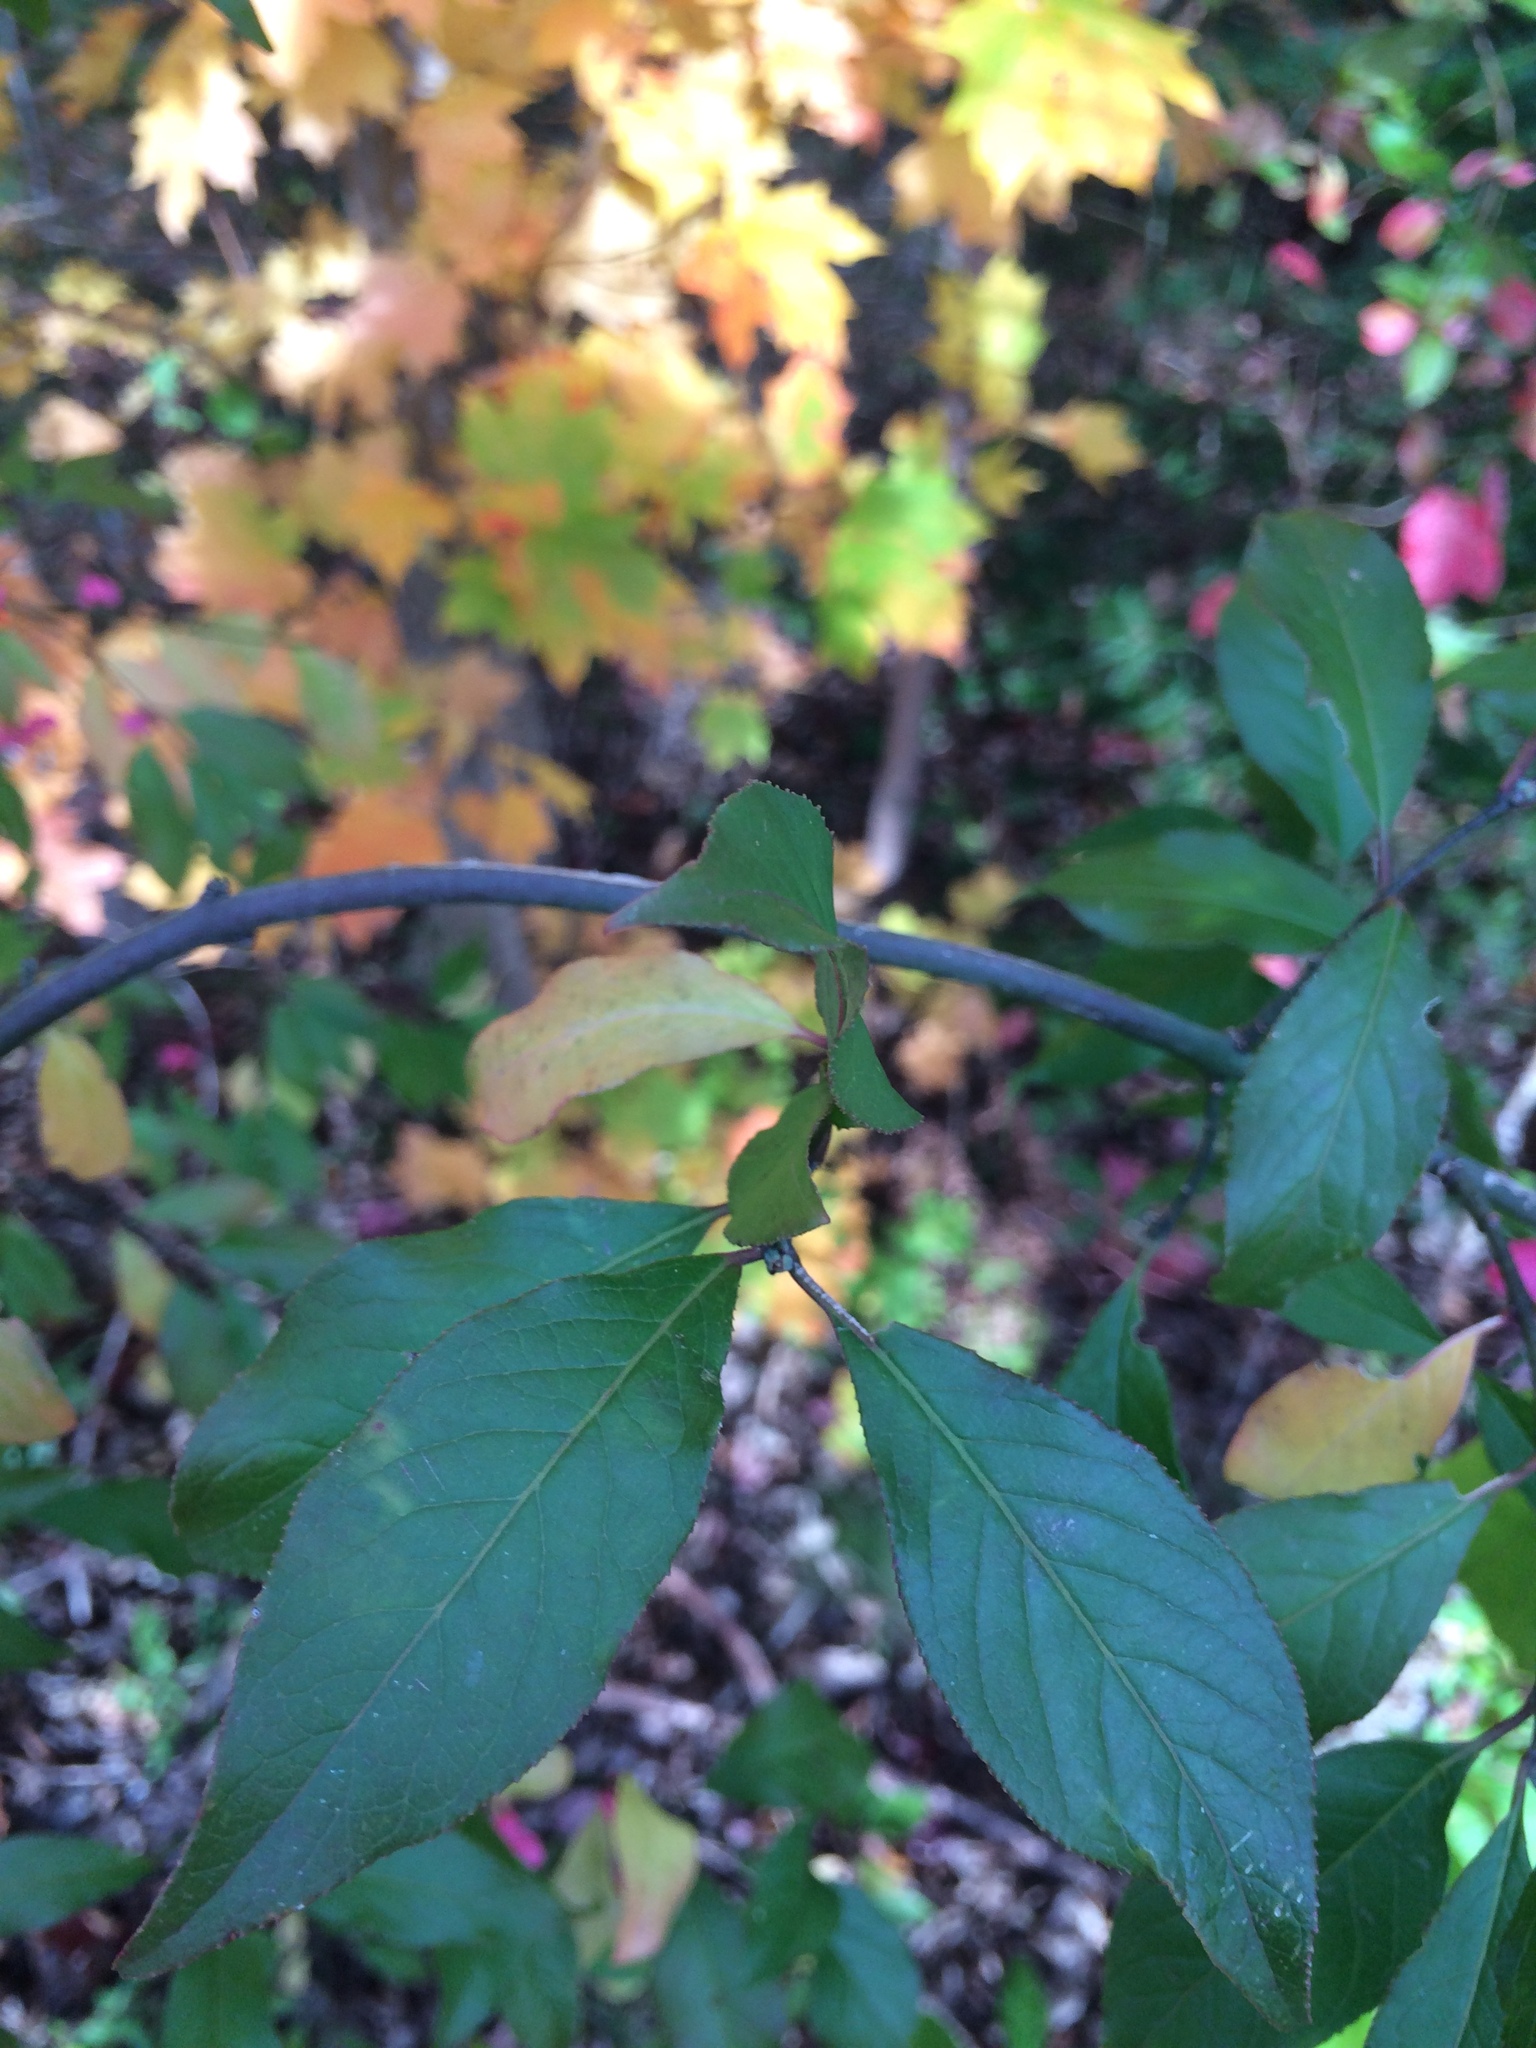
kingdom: Plantae
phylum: Tracheophyta
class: Magnoliopsida
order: Celastrales
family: Celastraceae
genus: Euonymus
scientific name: Euonymus europaeus
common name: Spindle
